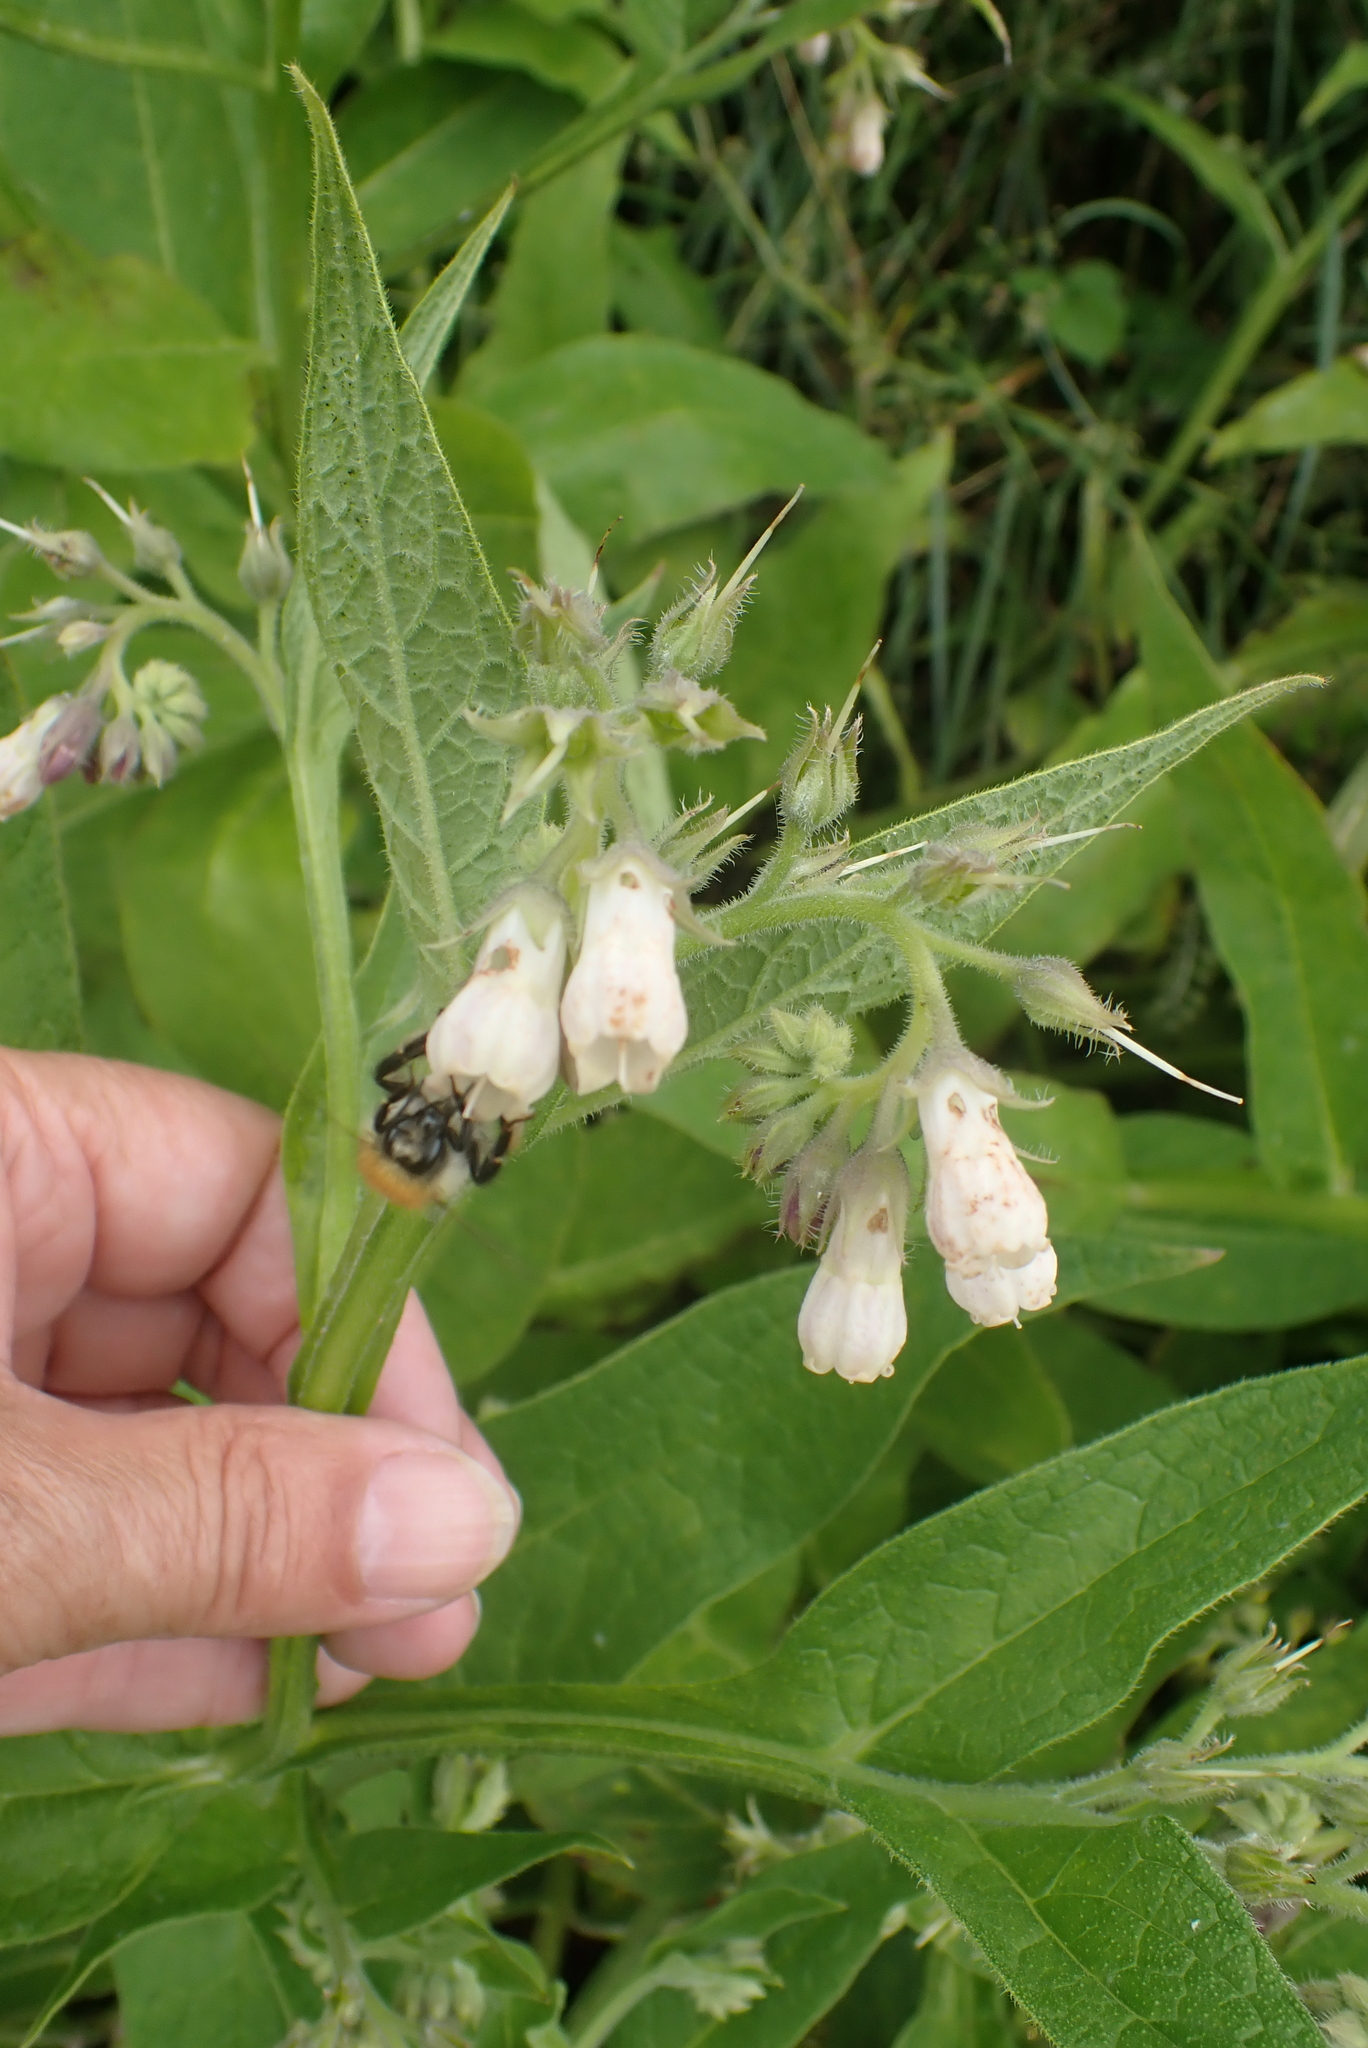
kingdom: Plantae
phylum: Tracheophyta
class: Magnoliopsida
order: Boraginales
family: Boraginaceae
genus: Symphytum
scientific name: Symphytum officinale
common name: Common comfrey
